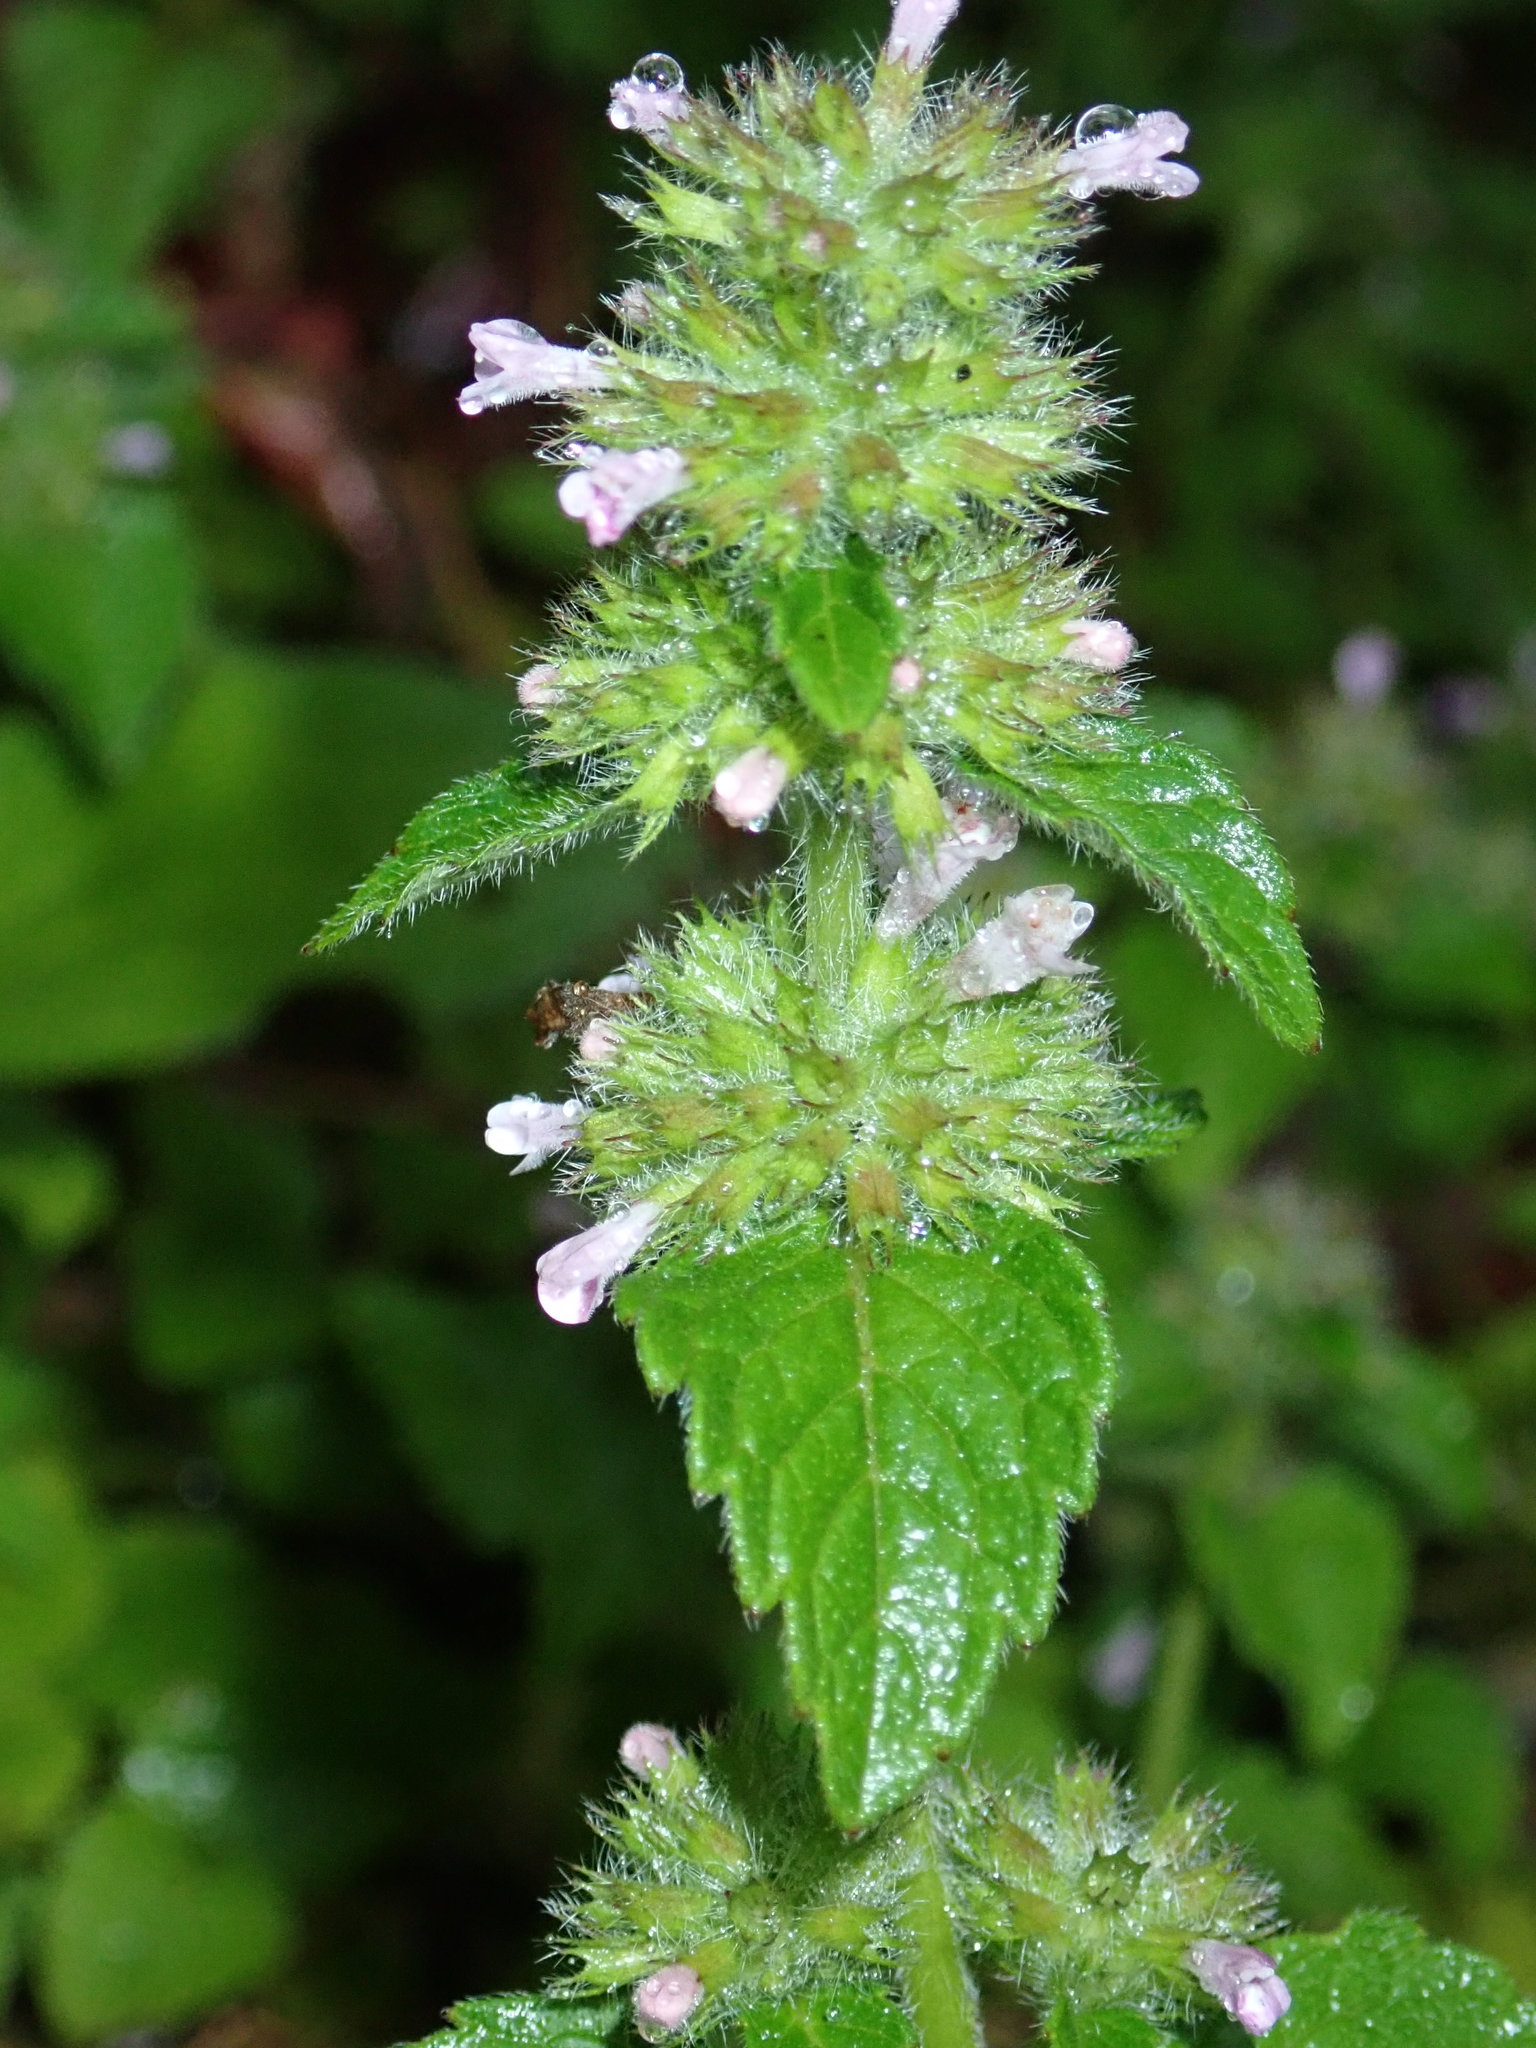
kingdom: Plantae
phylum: Tracheophyta
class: Magnoliopsida
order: Lamiales
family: Lamiaceae
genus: Clinopodium
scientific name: Clinopodium chinense
